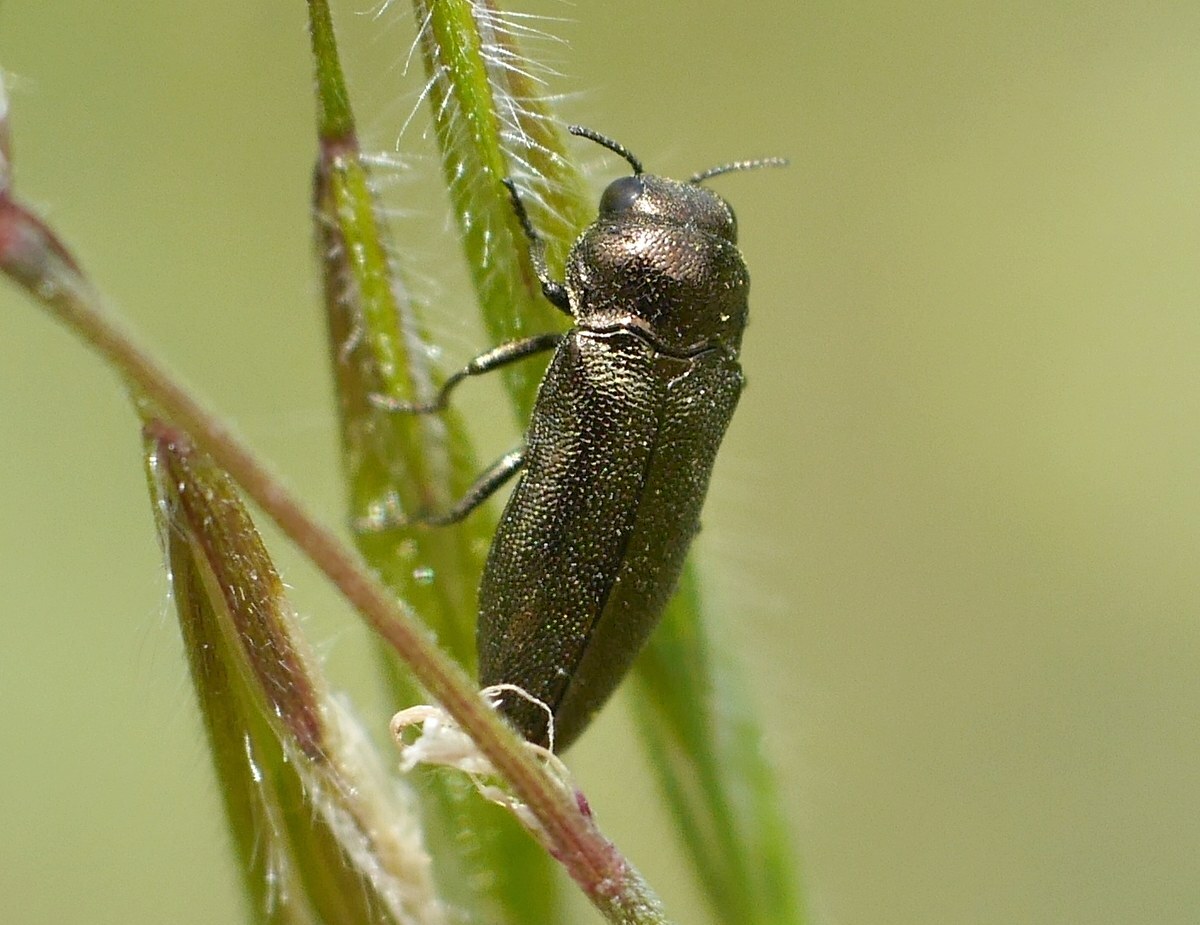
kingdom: Animalia
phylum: Arthropoda
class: Insecta
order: Coleoptera
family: Buprestidae
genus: Coraebus
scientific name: Coraebus elatus
